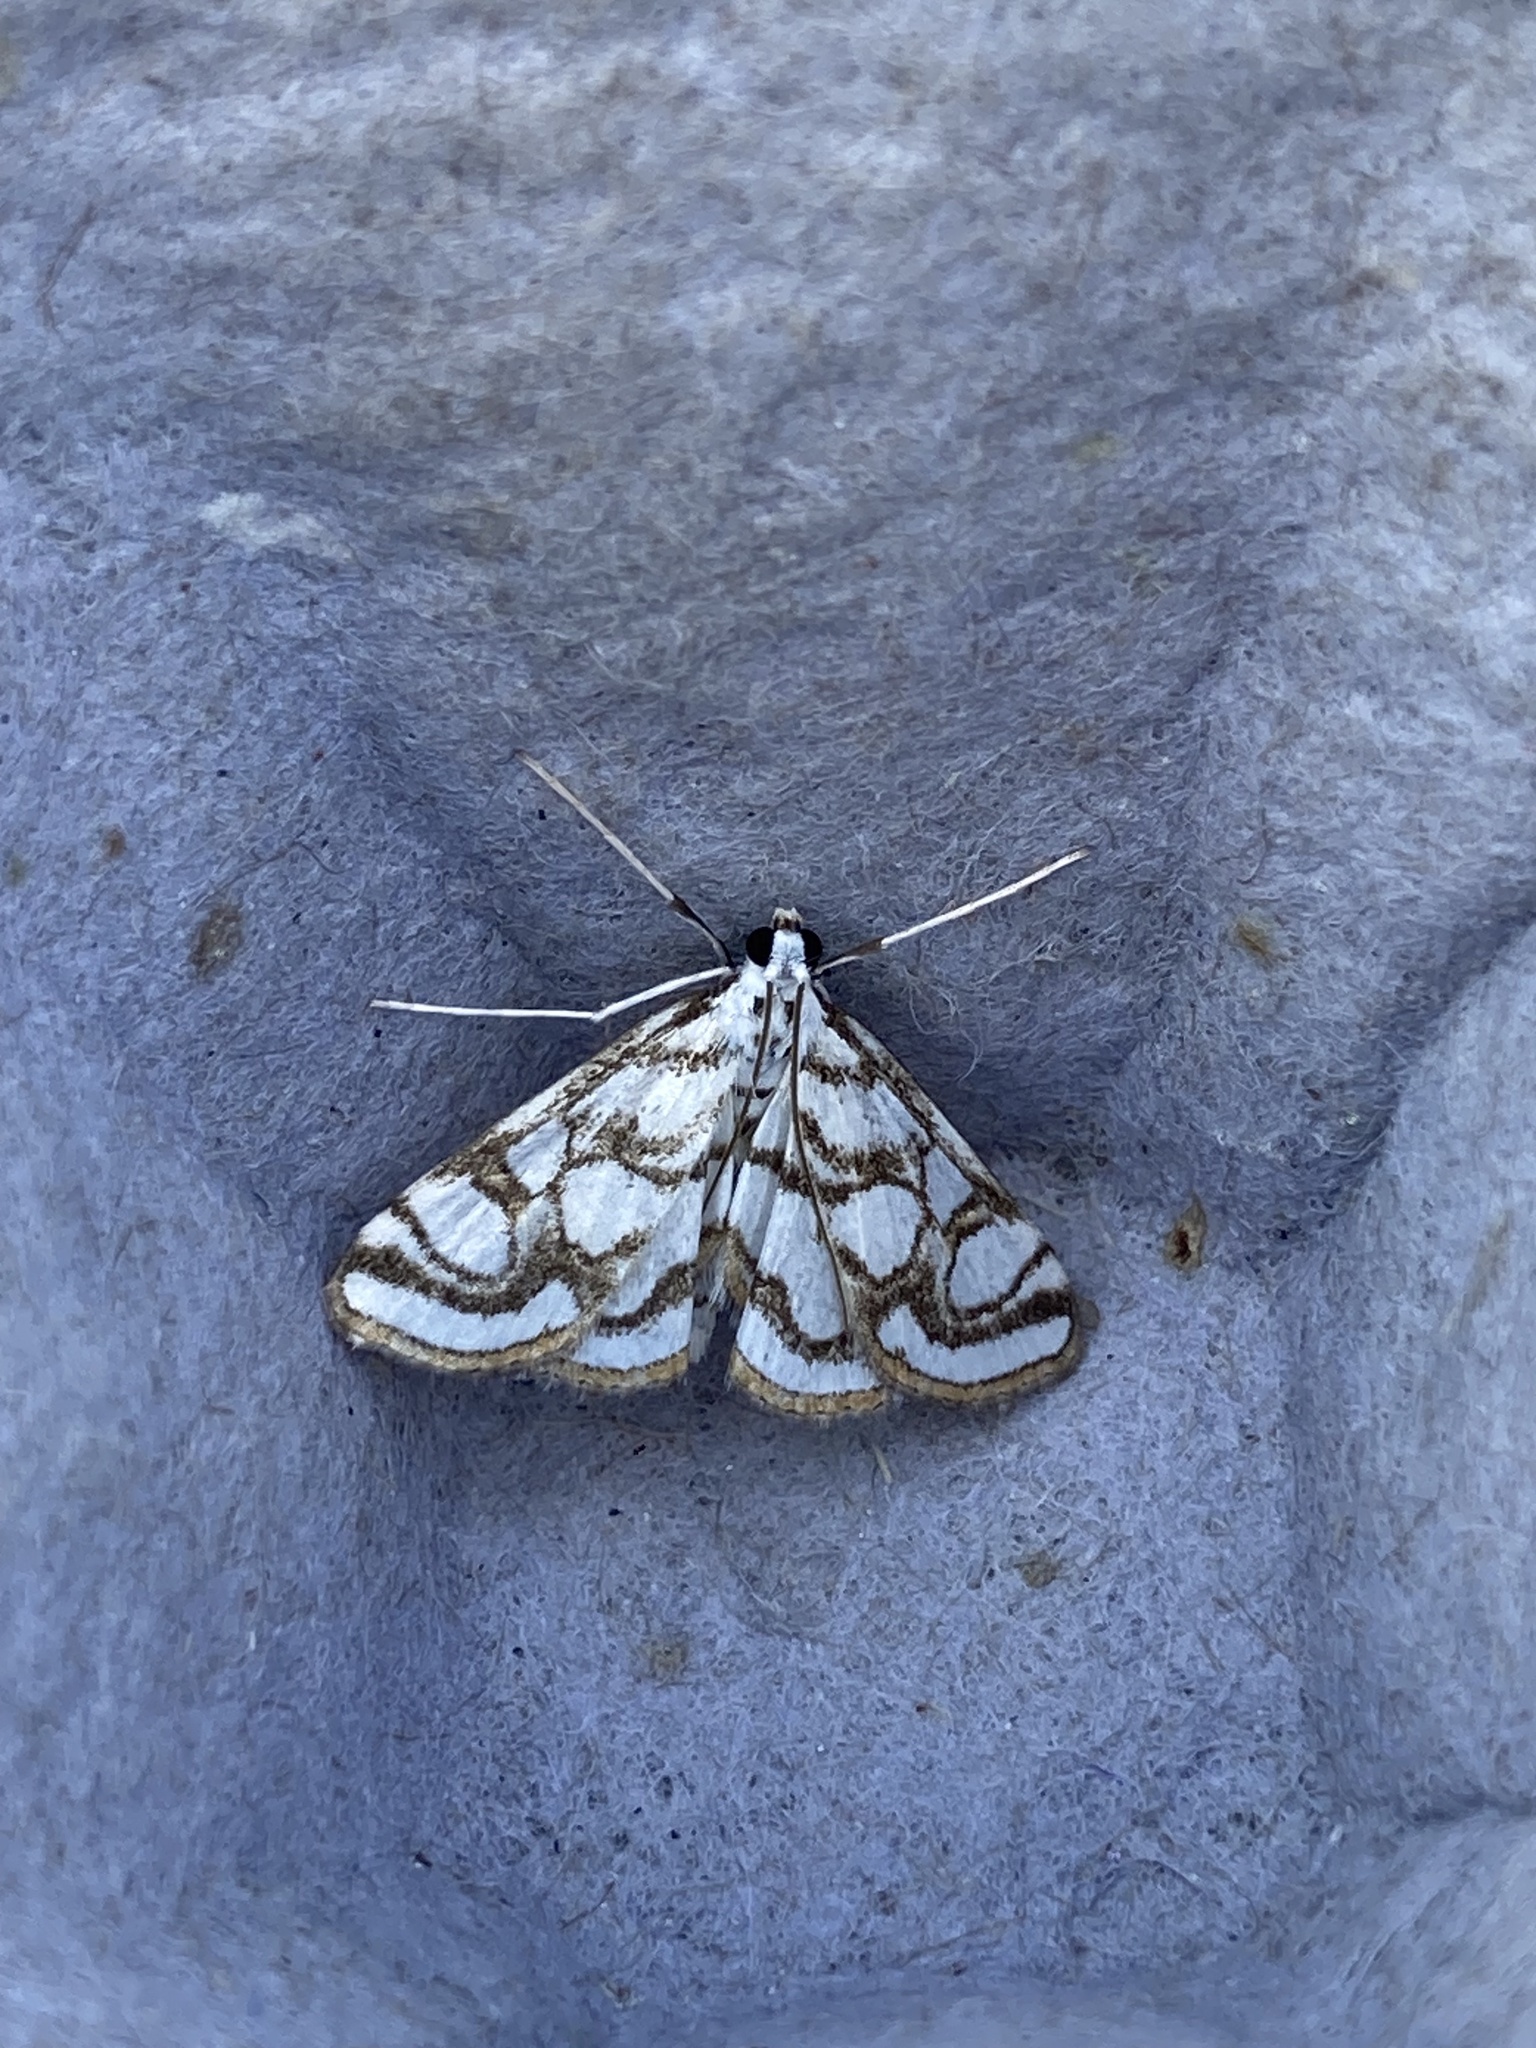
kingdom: Animalia
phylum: Arthropoda
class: Insecta
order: Lepidoptera
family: Crambidae
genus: Nymphula
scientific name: Nymphula nitidulata
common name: Beautiful china mark
